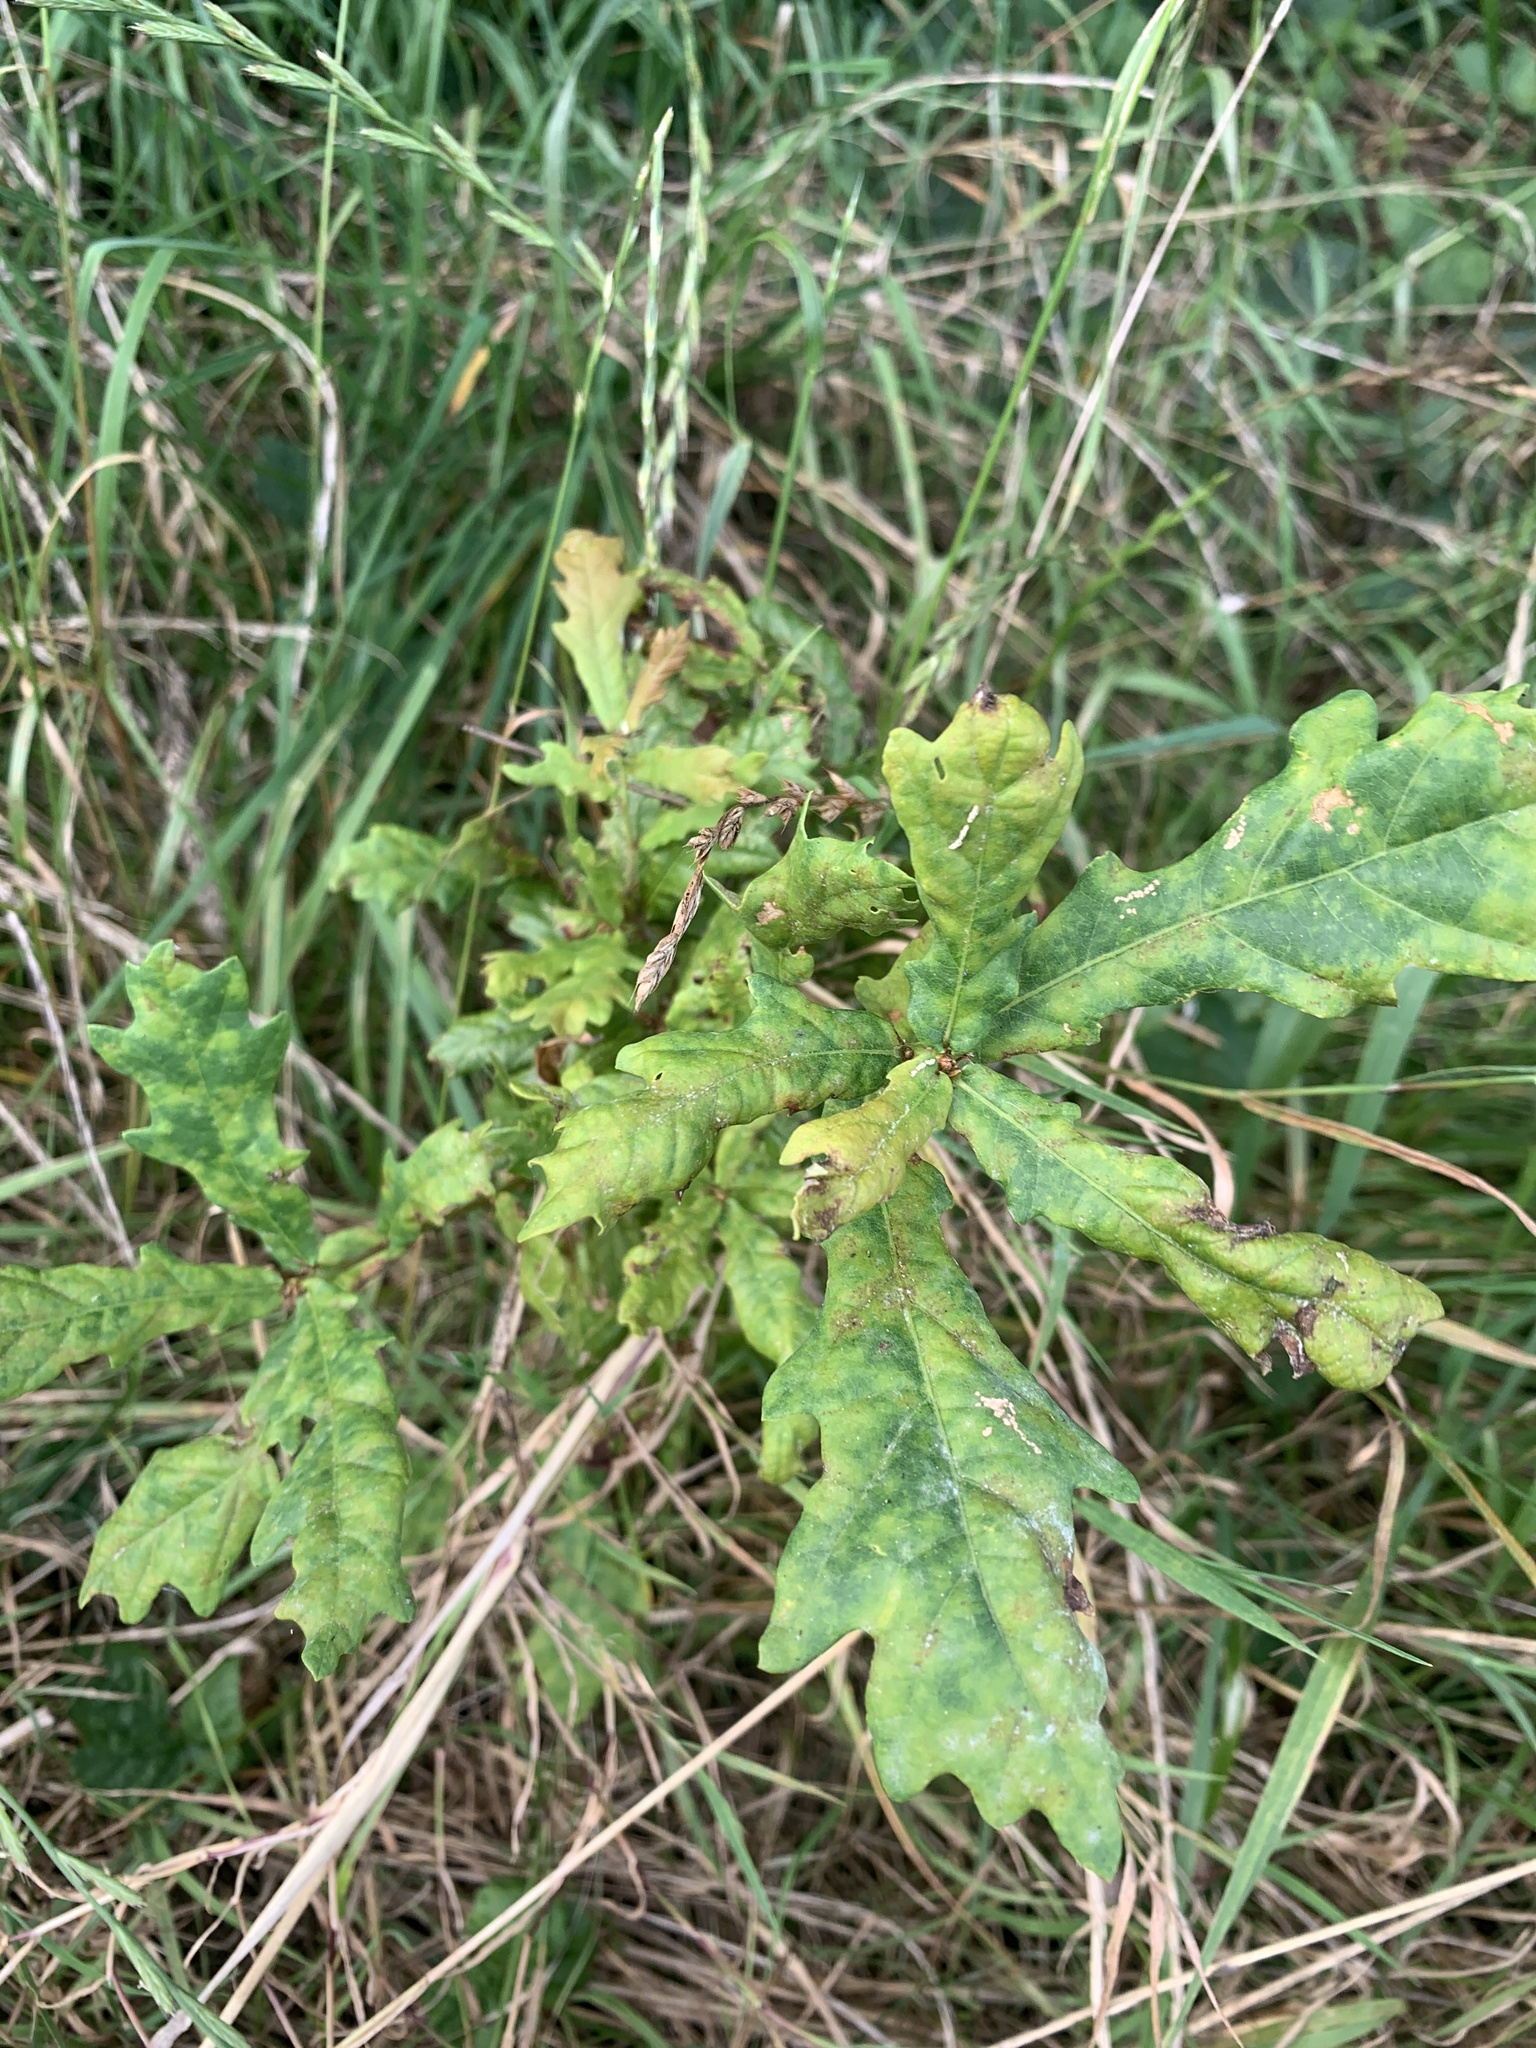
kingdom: Plantae
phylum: Tracheophyta
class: Magnoliopsida
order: Fagales
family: Fagaceae
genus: Quercus
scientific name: Quercus robur
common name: Pedunculate oak
